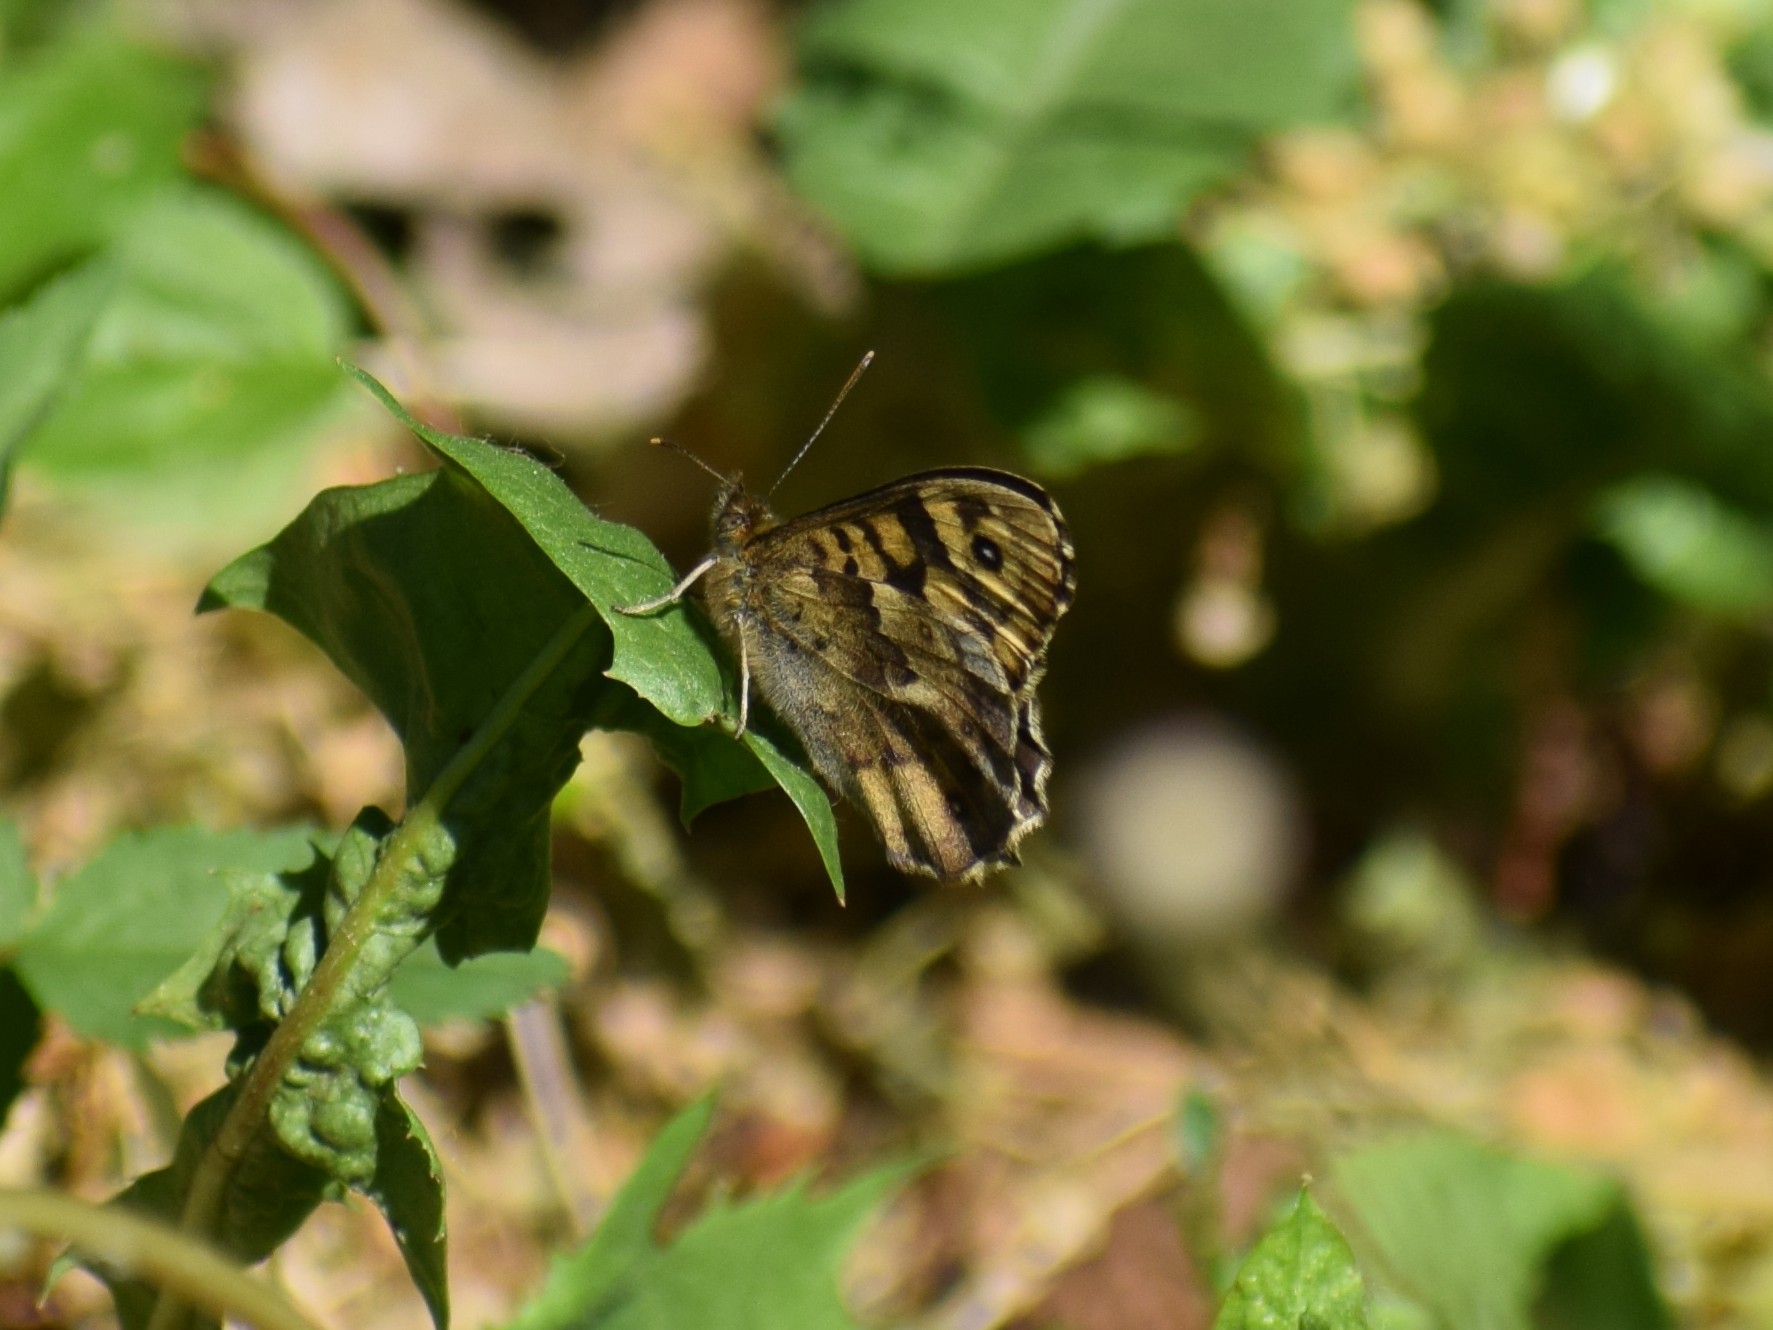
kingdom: Animalia
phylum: Arthropoda
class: Insecta
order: Lepidoptera
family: Nymphalidae
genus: Pararge
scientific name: Pararge aegeria
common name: Speckled wood
